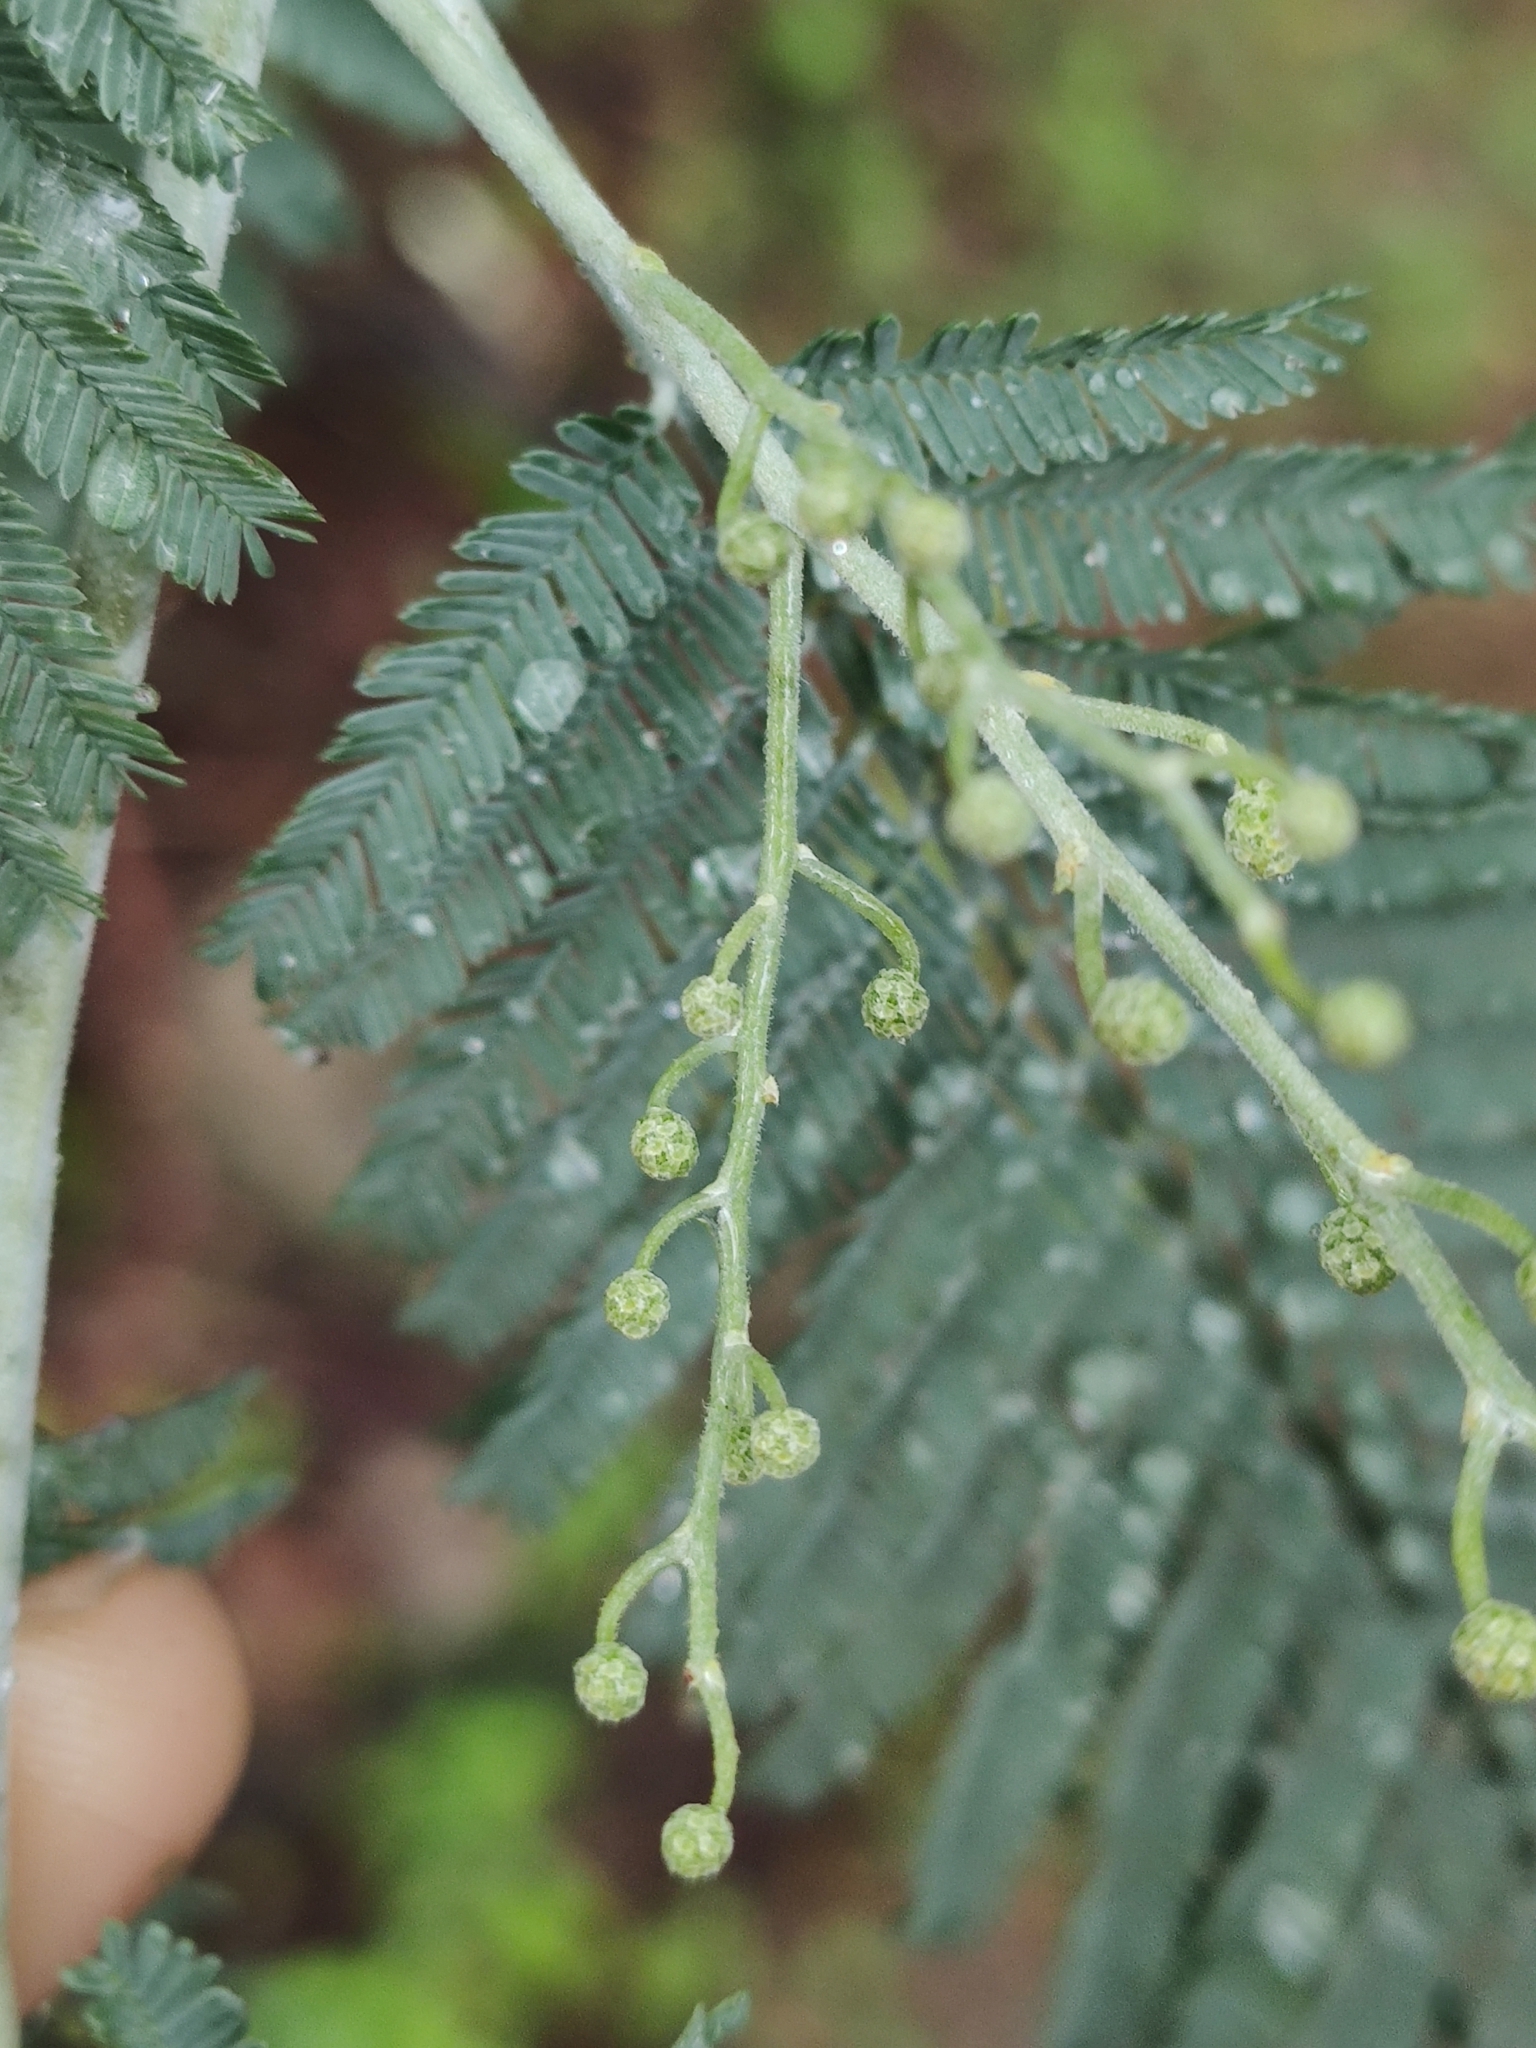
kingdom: Plantae
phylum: Tracheophyta
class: Magnoliopsida
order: Fabales
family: Fabaceae
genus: Acacia
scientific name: Acacia dealbata
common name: Silver wattle
